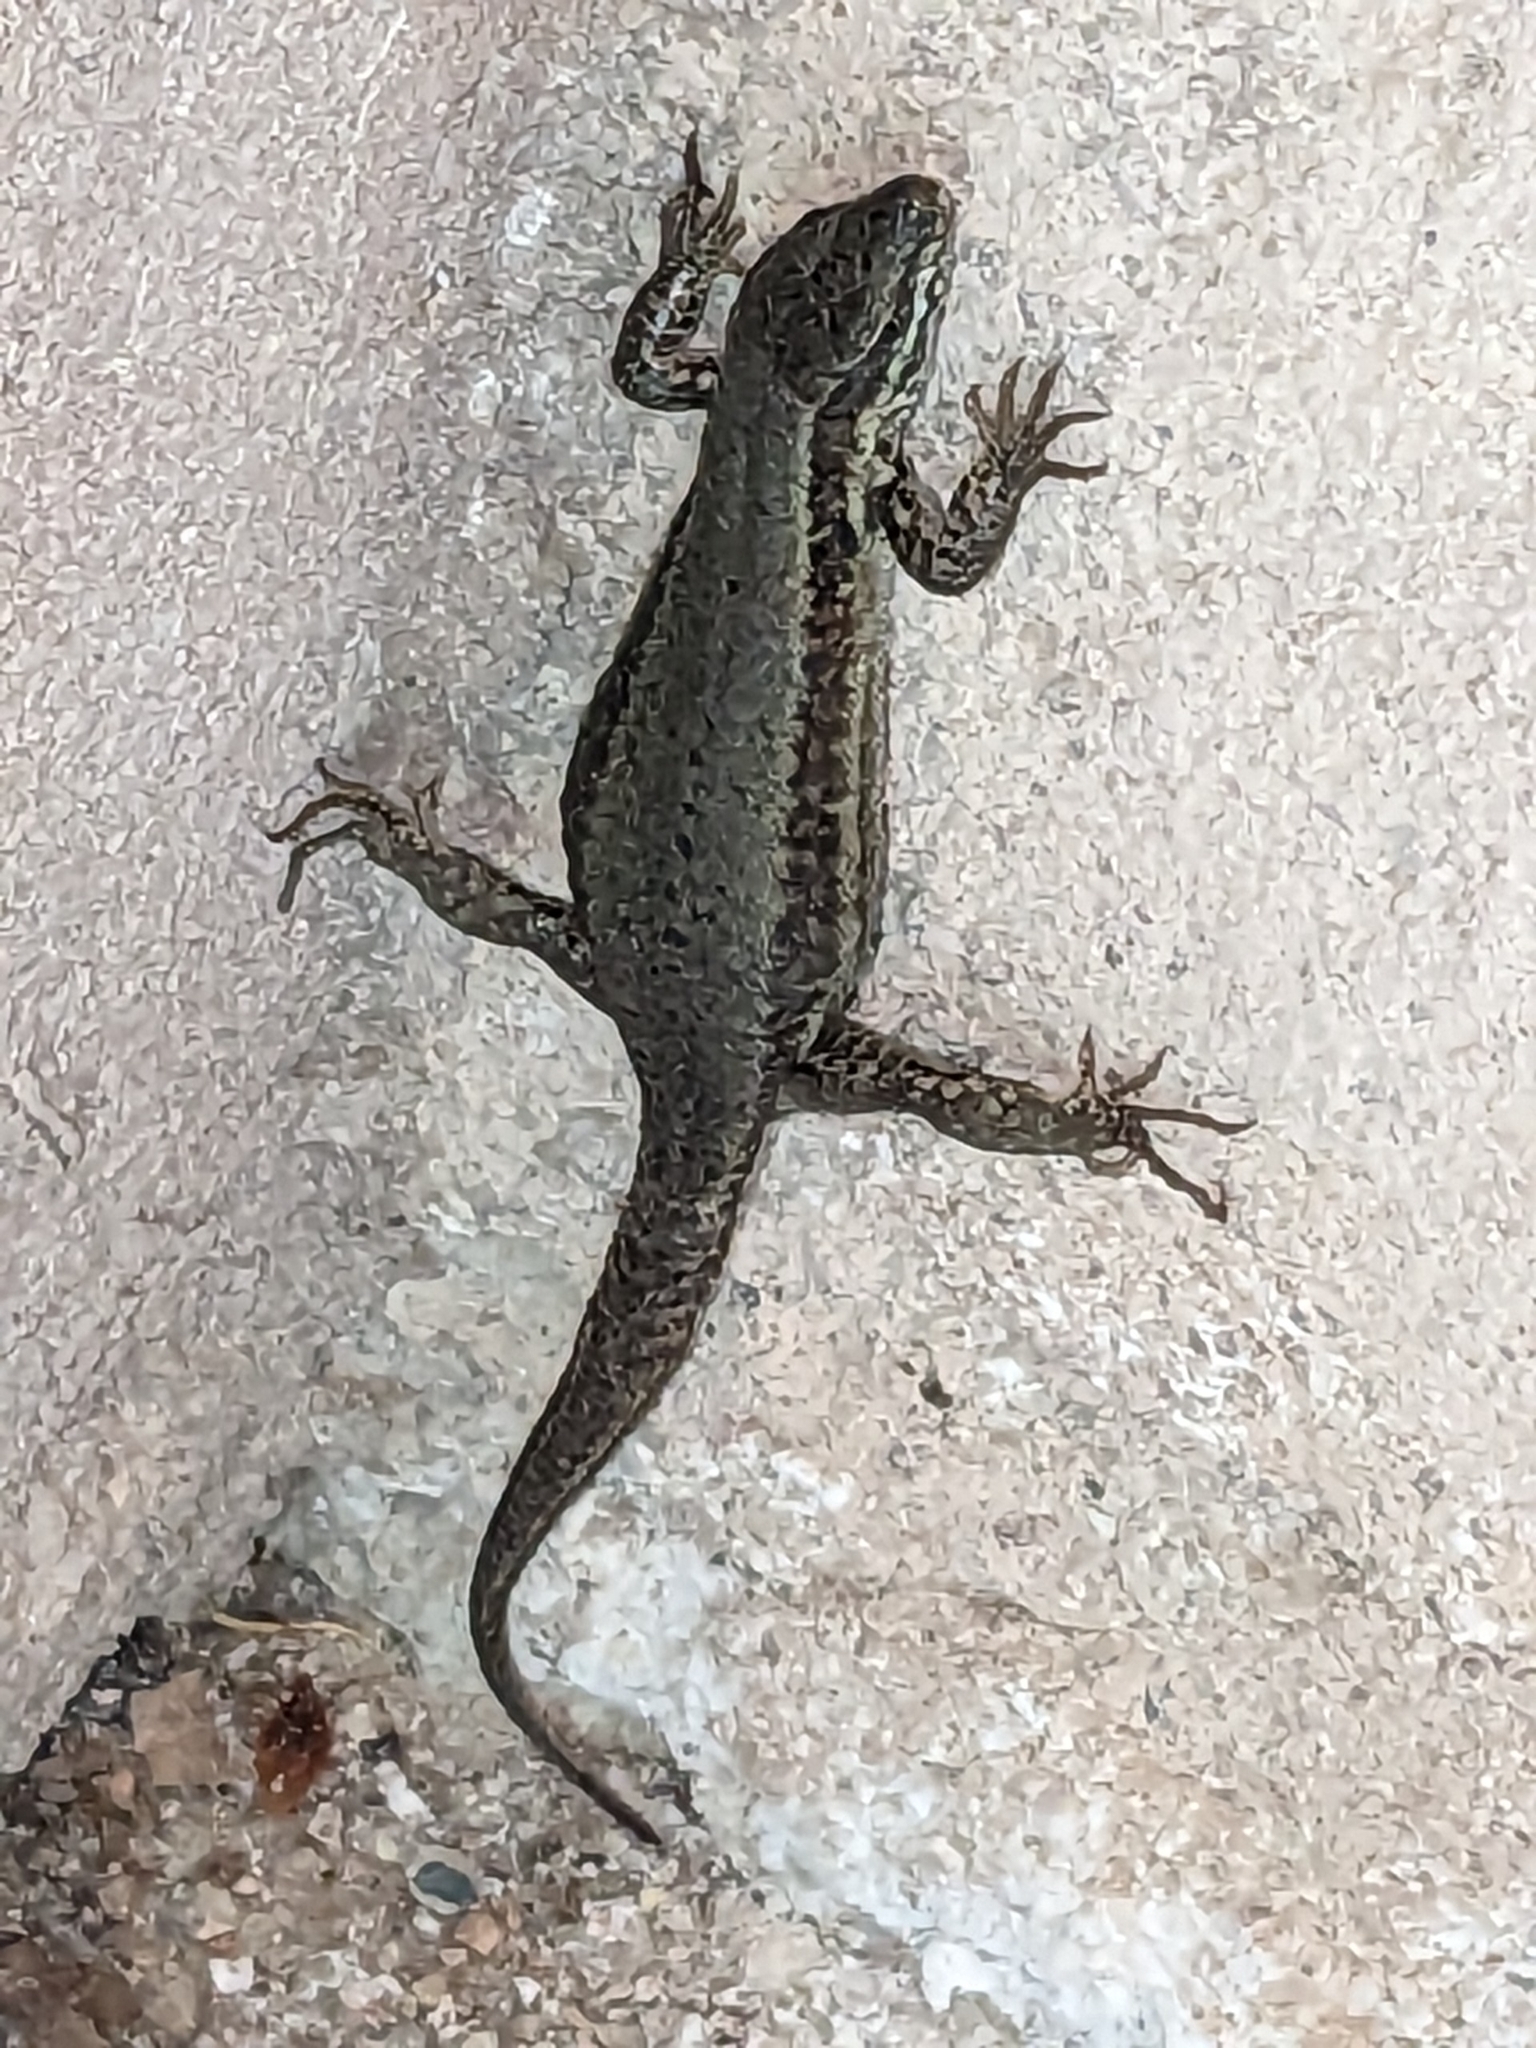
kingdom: Animalia
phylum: Chordata
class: Squamata
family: Lacertidae
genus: Podarcis
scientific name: Podarcis muralis
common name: Common wall lizard
